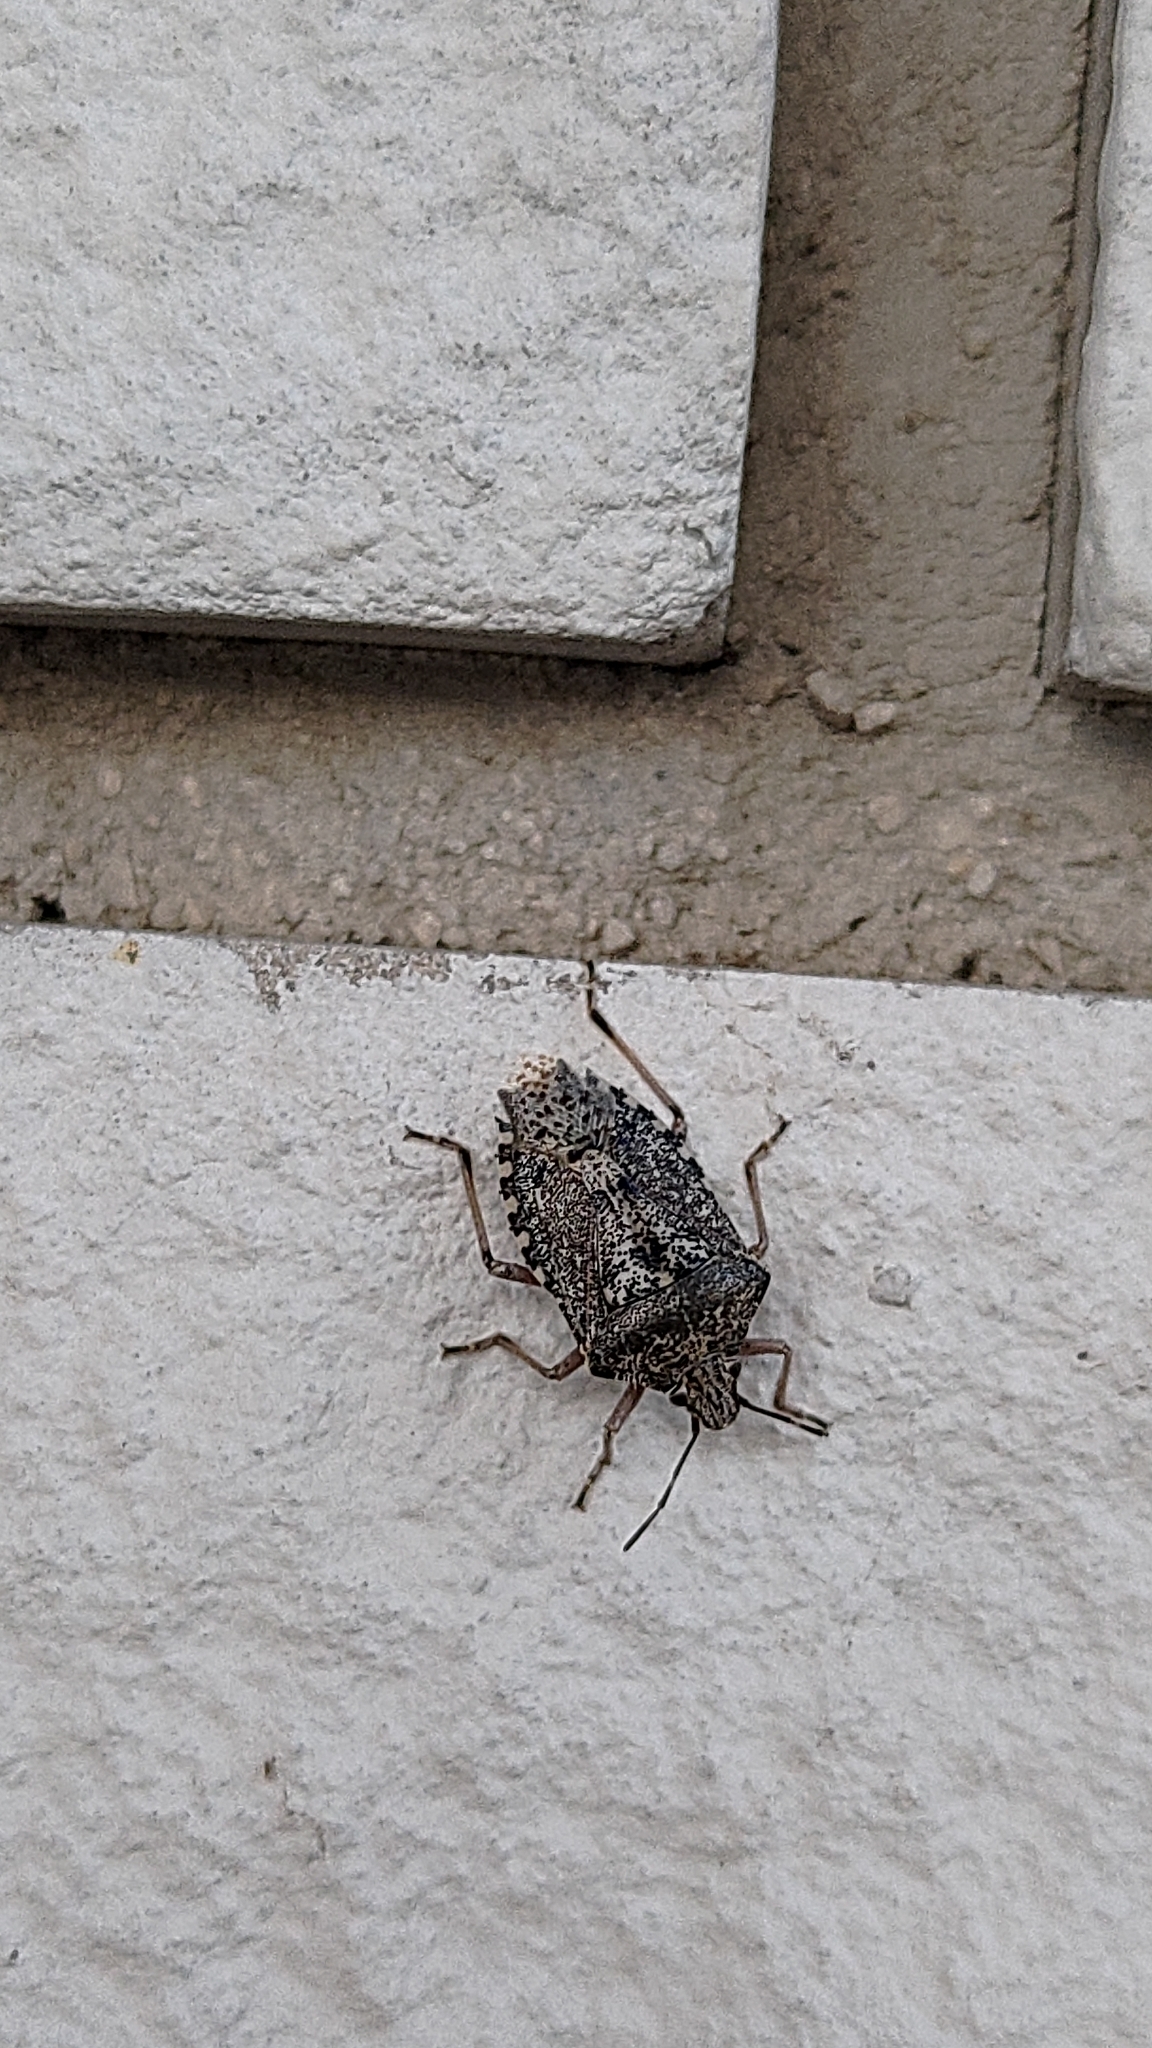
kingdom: Animalia
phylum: Arthropoda
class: Insecta
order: Hemiptera
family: Pentatomidae
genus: Rhaphigaster
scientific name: Rhaphigaster nebulosa
